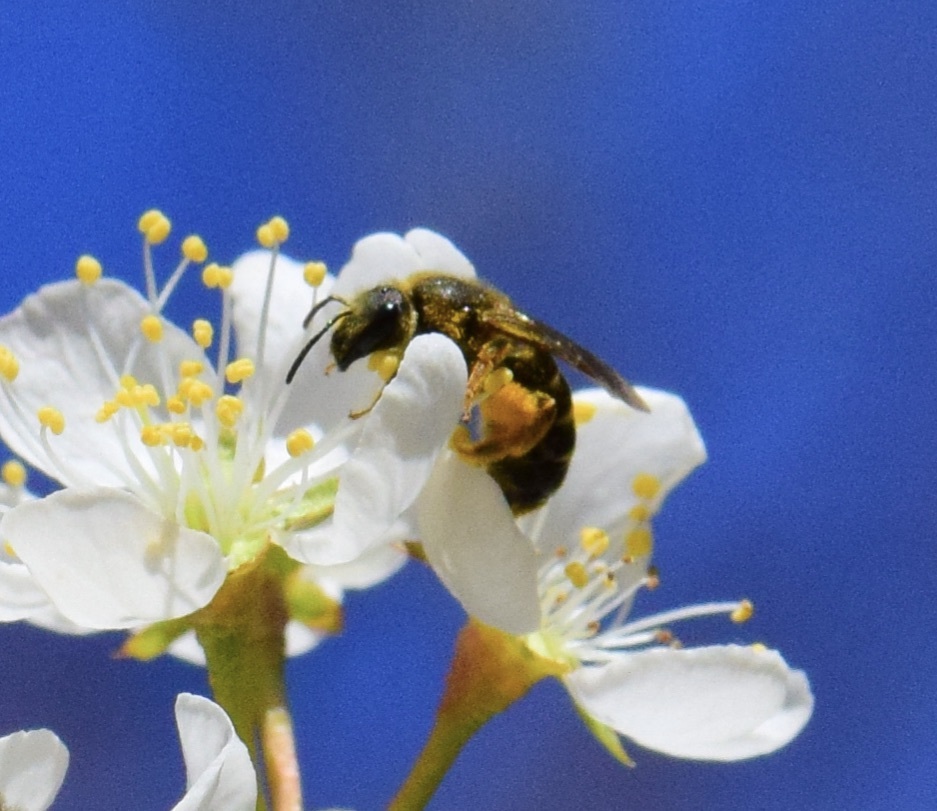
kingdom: Animalia
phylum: Arthropoda
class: Insecta
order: Hymenoptera
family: Halictidae
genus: Halictus
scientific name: Halictus rubicundus
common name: Orange-legged furrow bee
